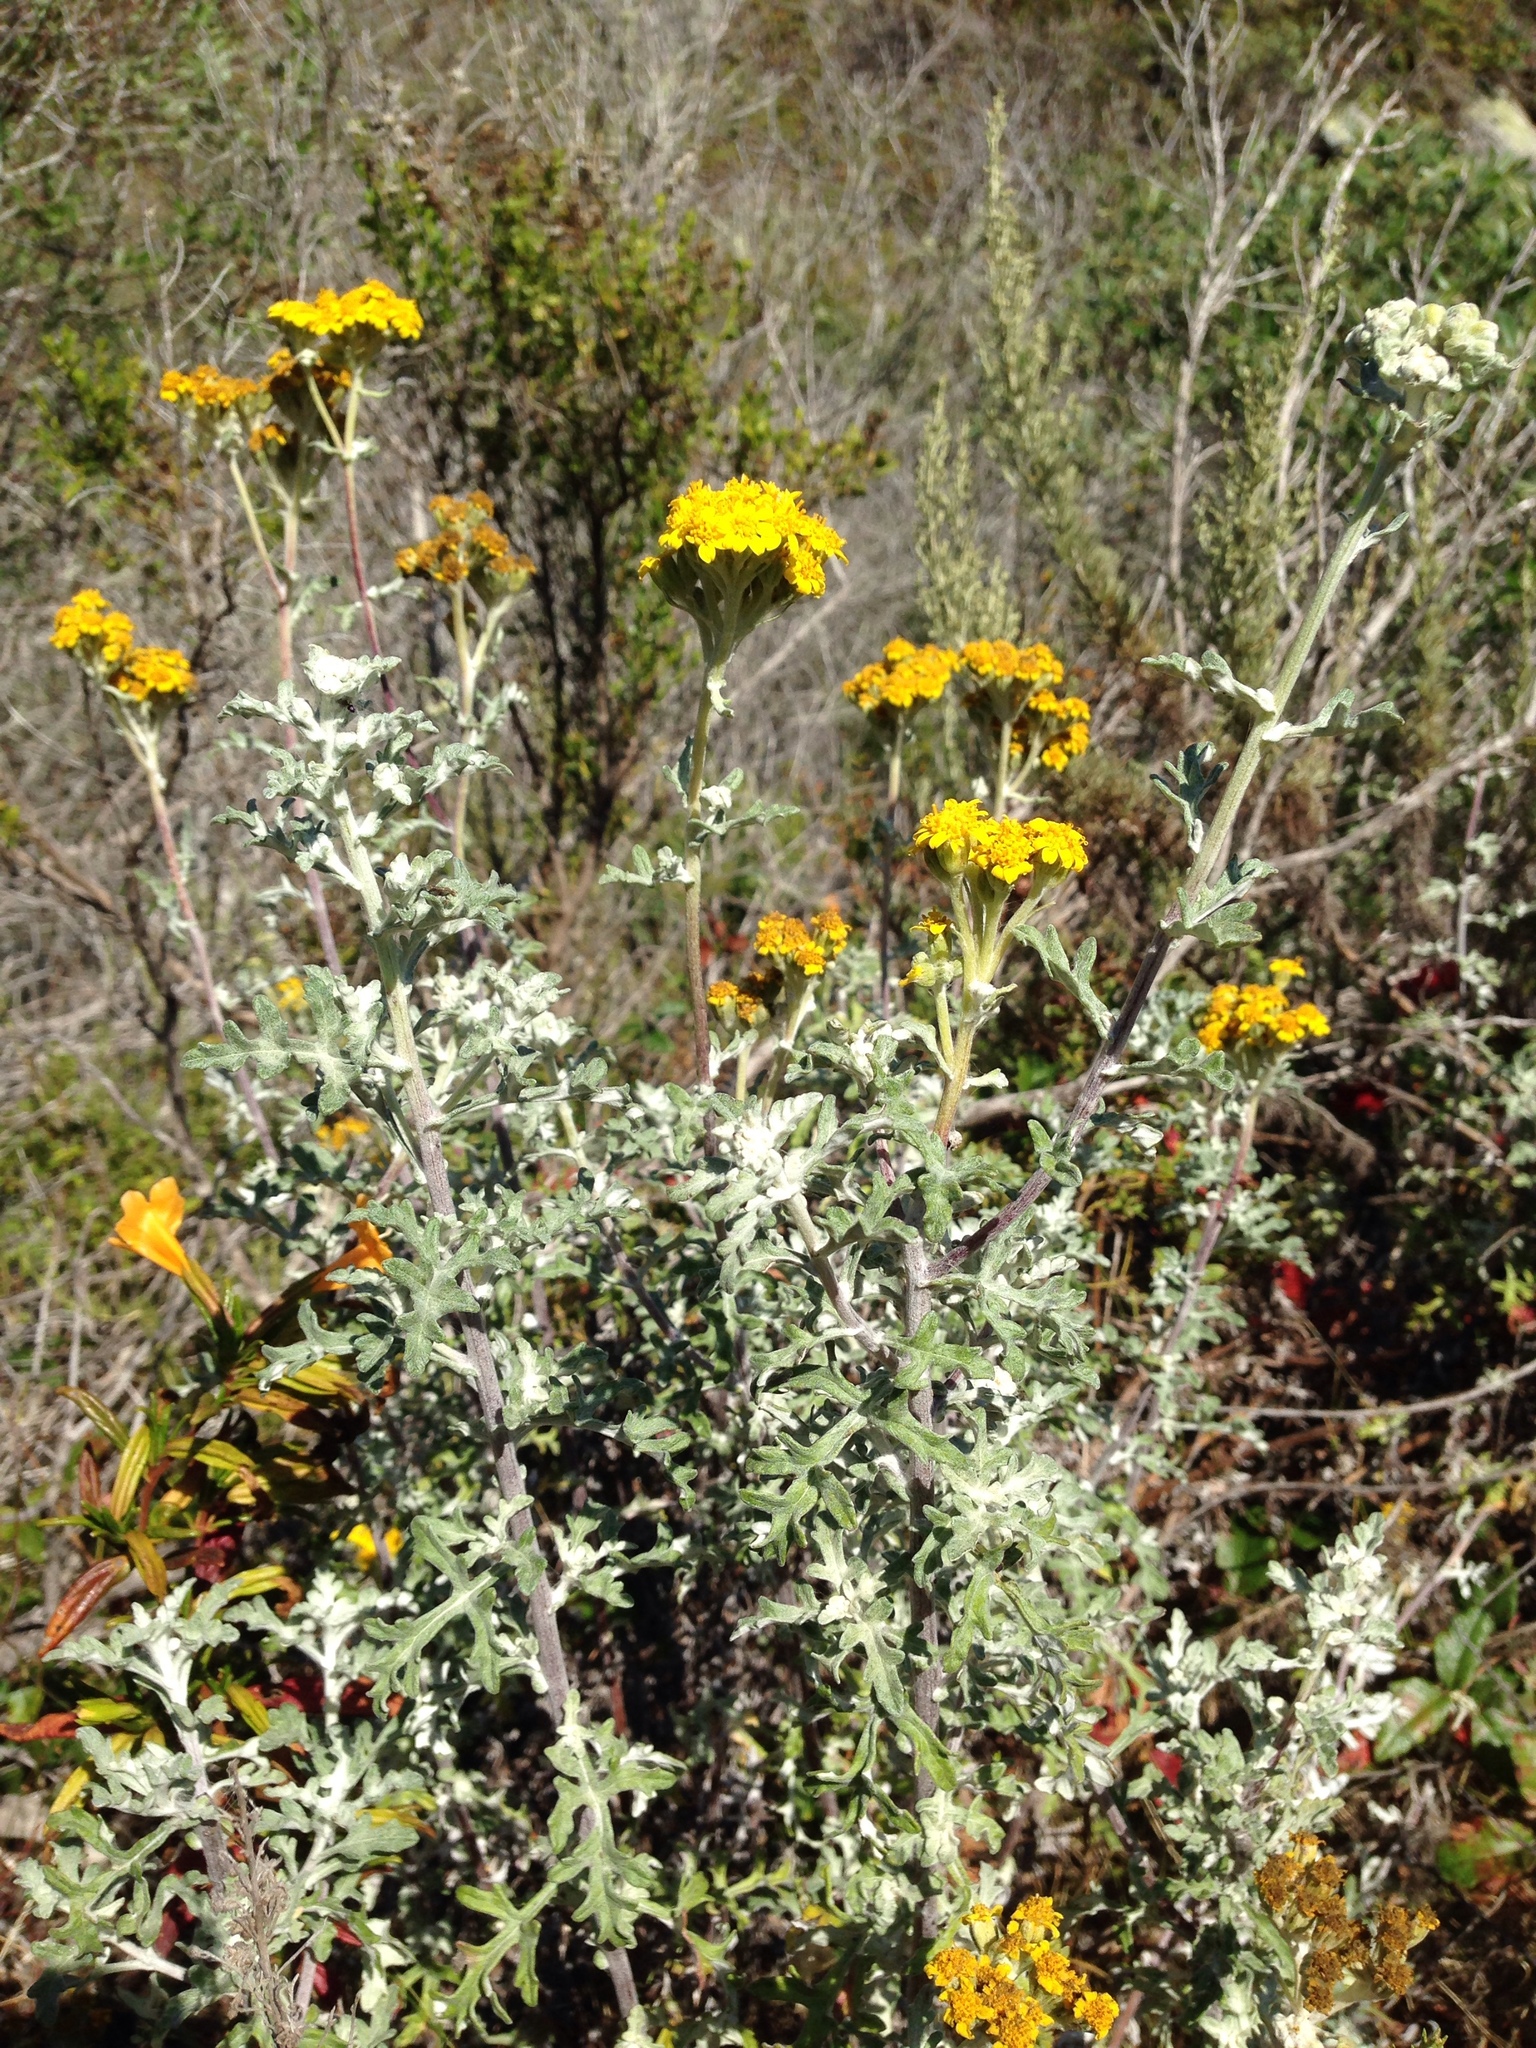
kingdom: Plantae
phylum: Tracheophyta
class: Magnoliopsida
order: Asterales
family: Asteraceae
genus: Eriophyllum
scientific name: Eriophyllum staechadifolium
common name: Lizardtail
